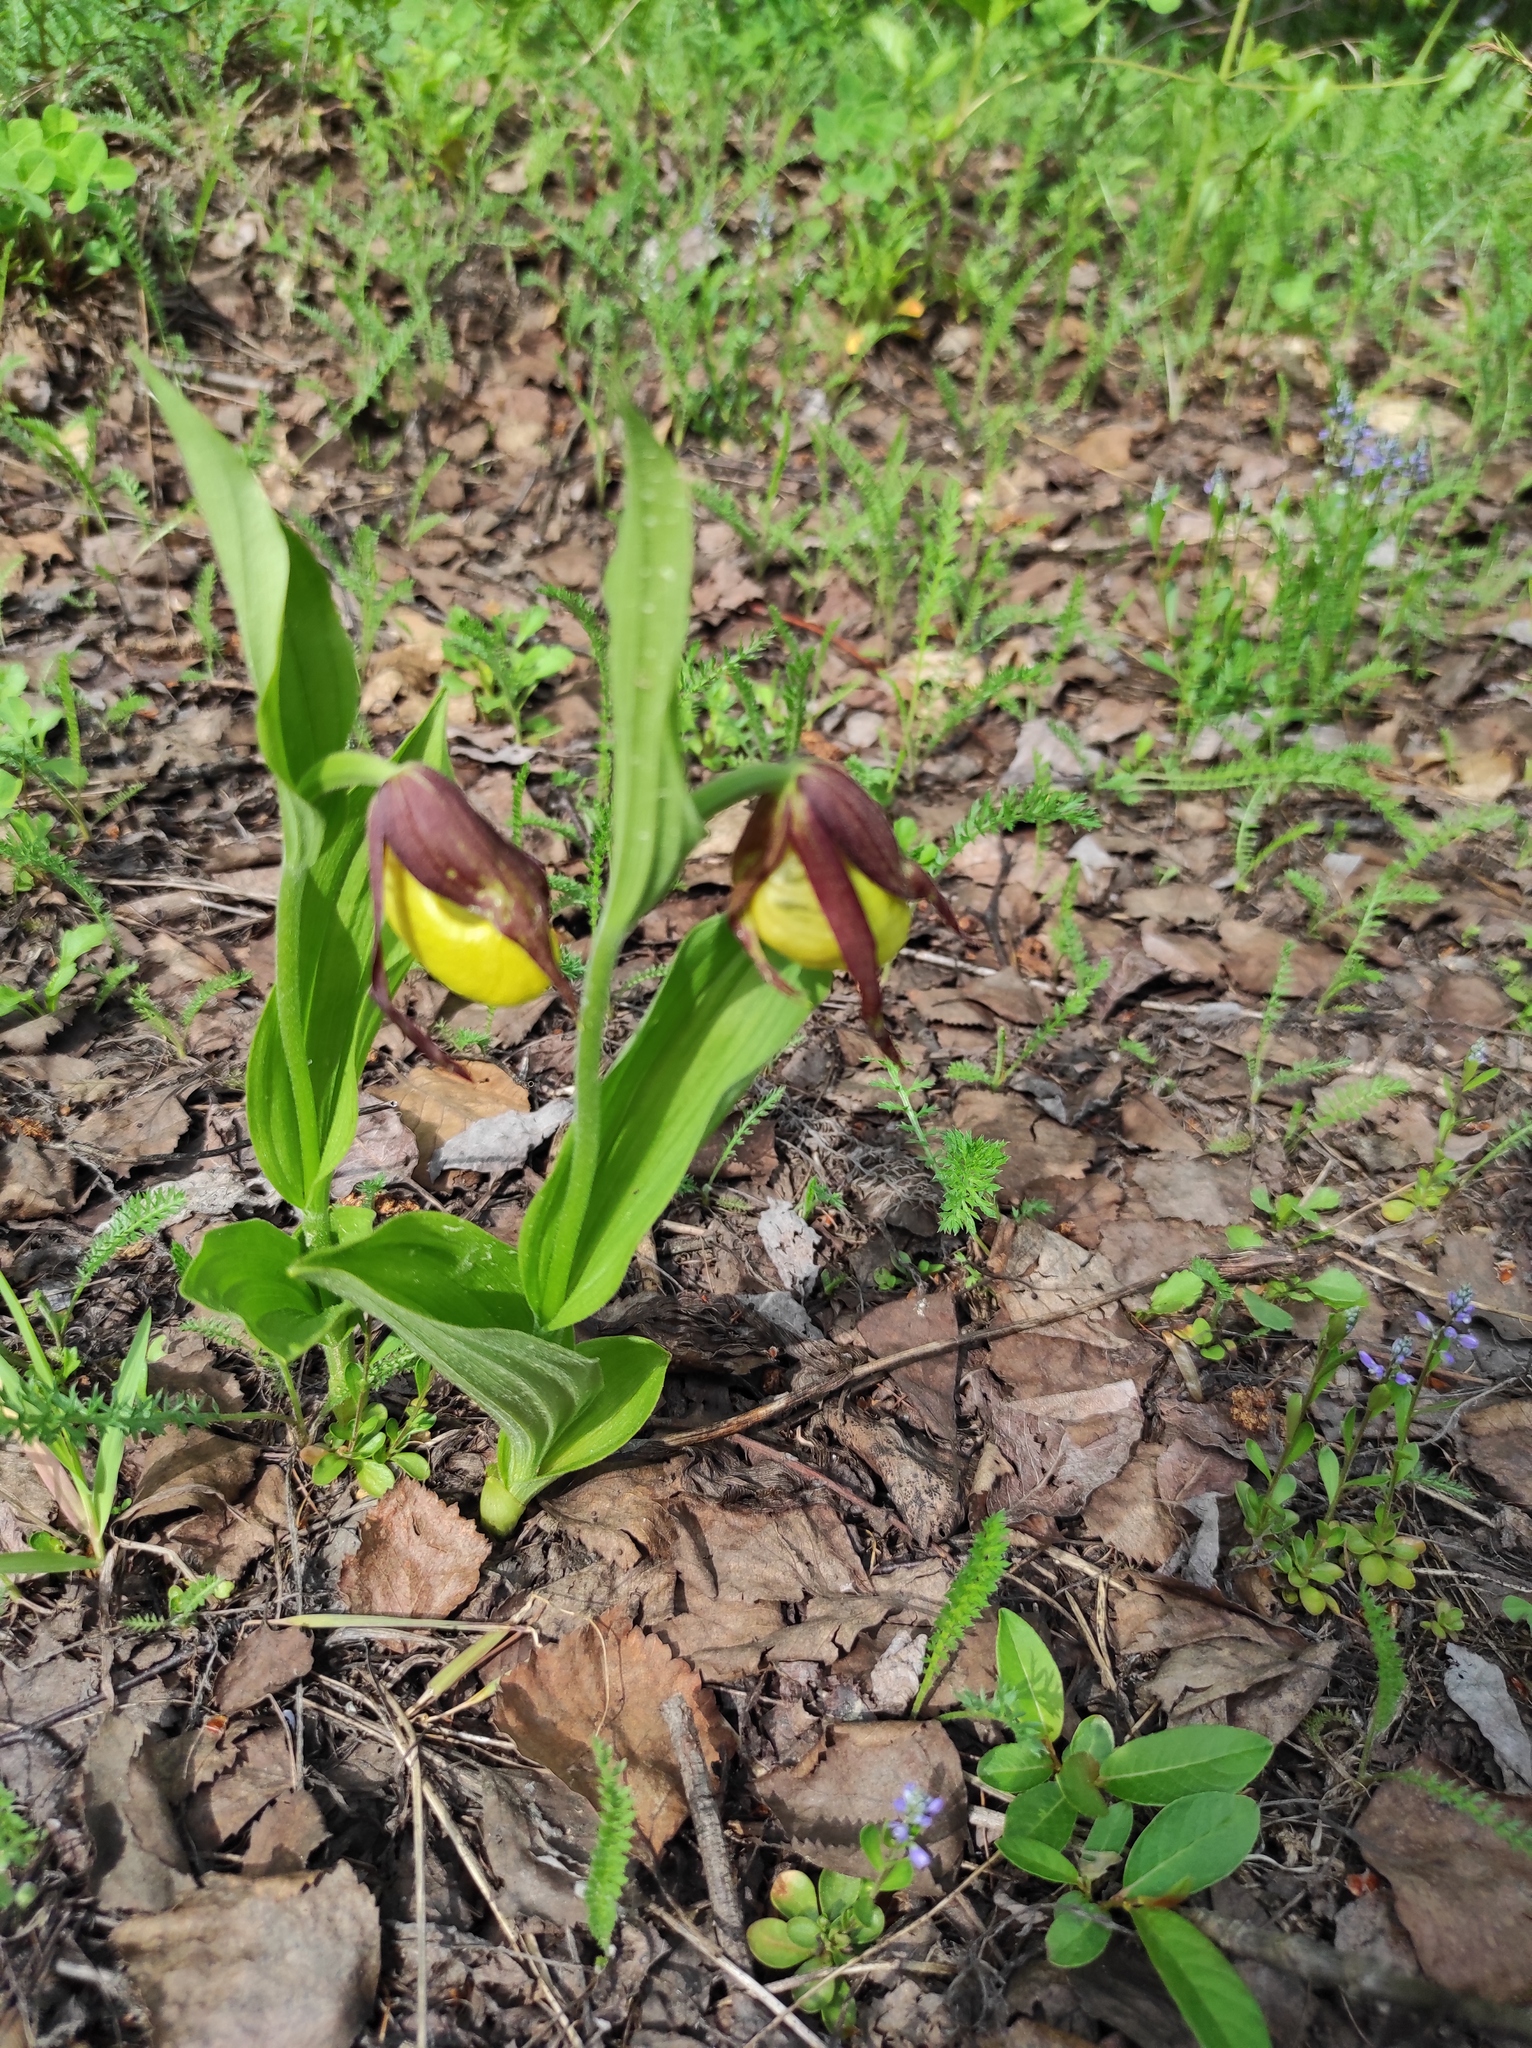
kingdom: Plantae
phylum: Tracheophyta
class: Liliopsida
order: Asparagales
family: Orchidaceae
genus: Cypripedium
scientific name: Cypripedium calceolus
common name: Lady's-slipper
